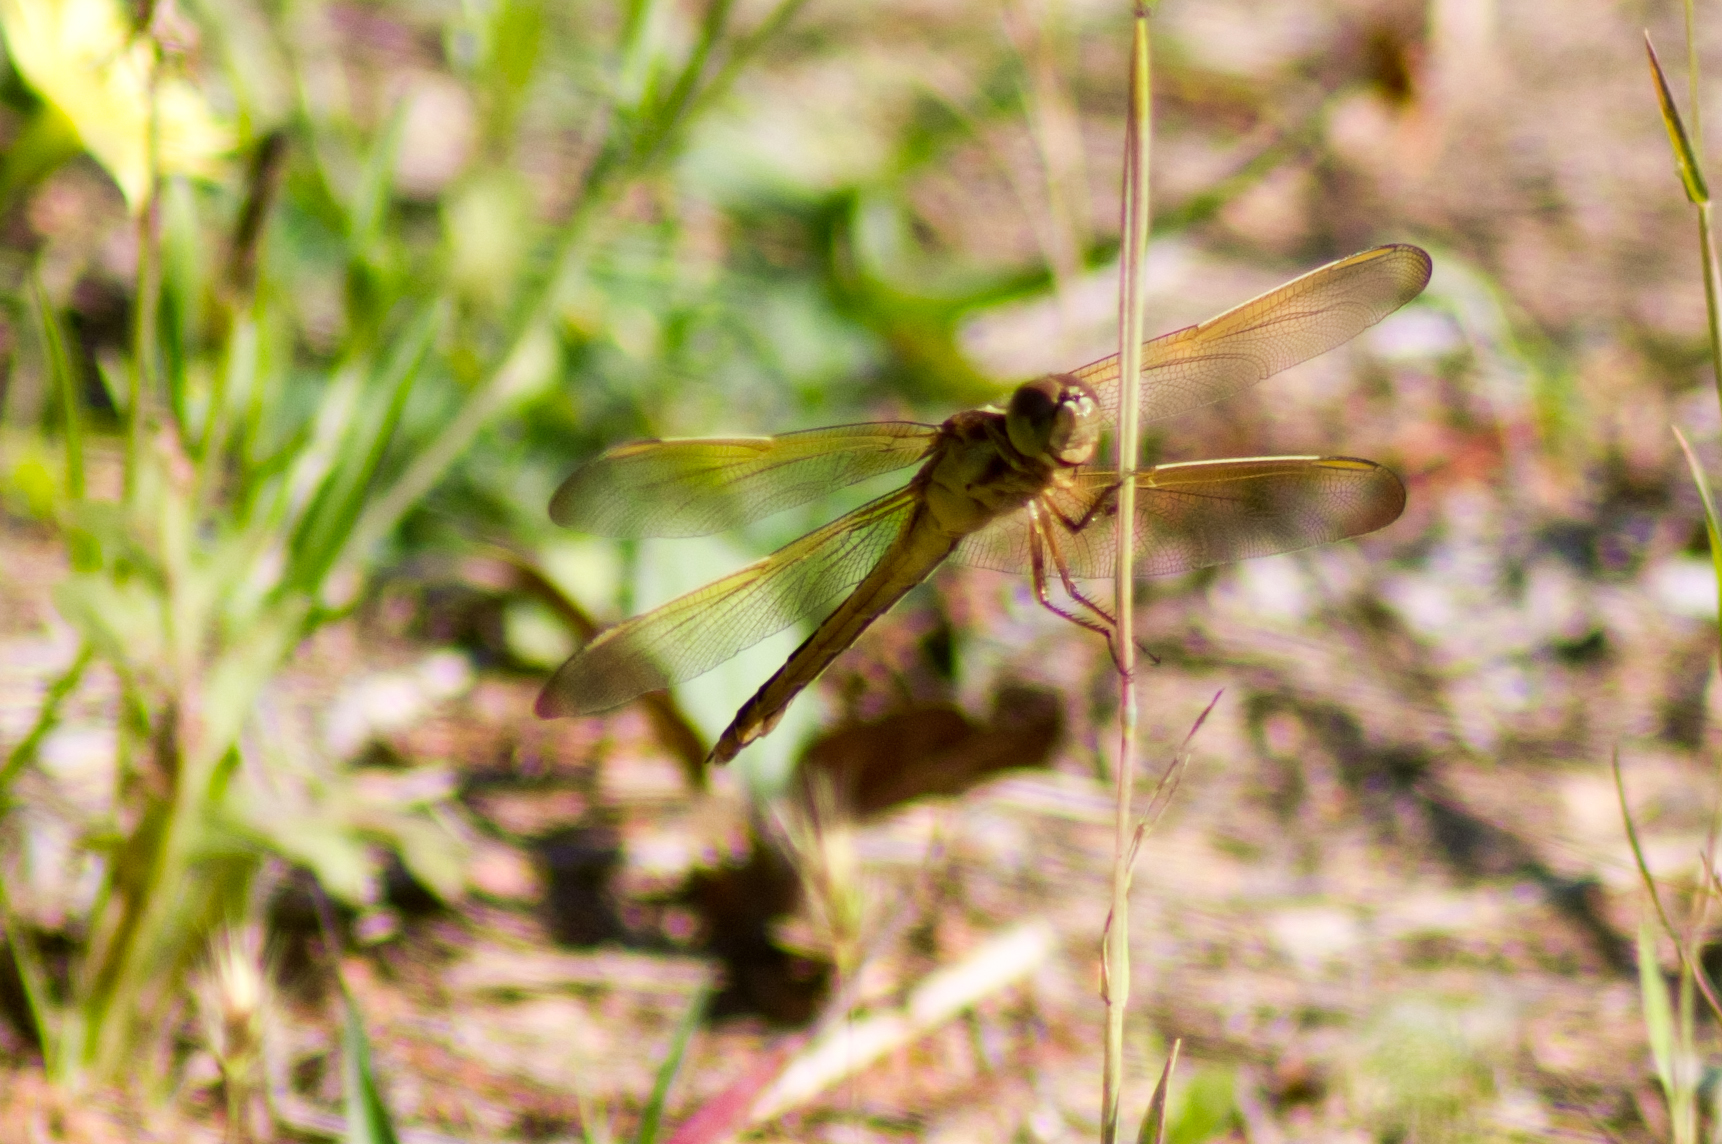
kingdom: Animalia
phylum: Arthropoda
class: Insecta
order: Odonata
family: Libellulidae
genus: Libellula
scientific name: Libellula needhami
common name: Needham's skimmer
